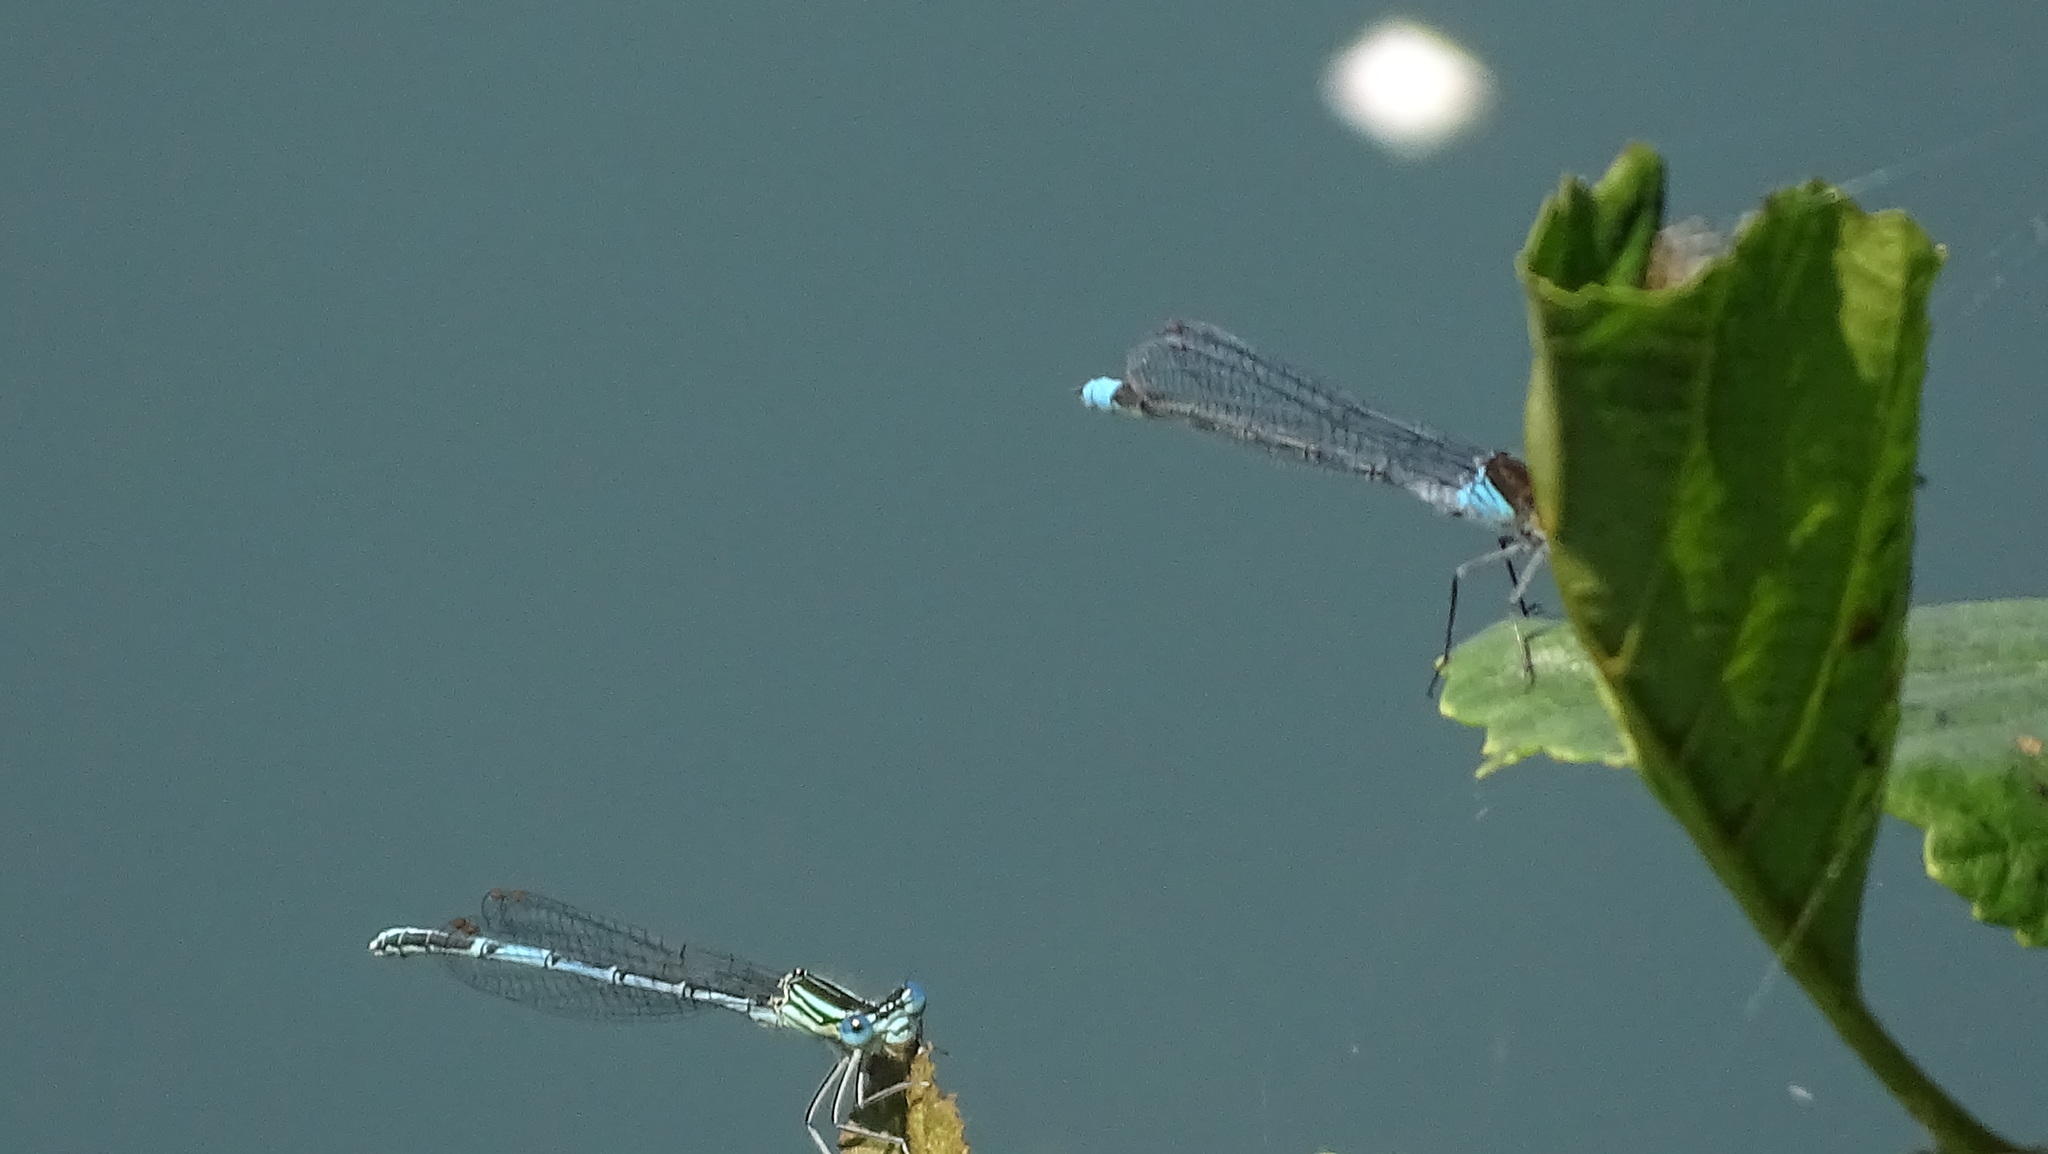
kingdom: Animalia
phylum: Arthropoda
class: Insecta
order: Odonata
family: Platycnemididae
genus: Platycnemis
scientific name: Platycnemis pennipes
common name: White-legged damselfly
